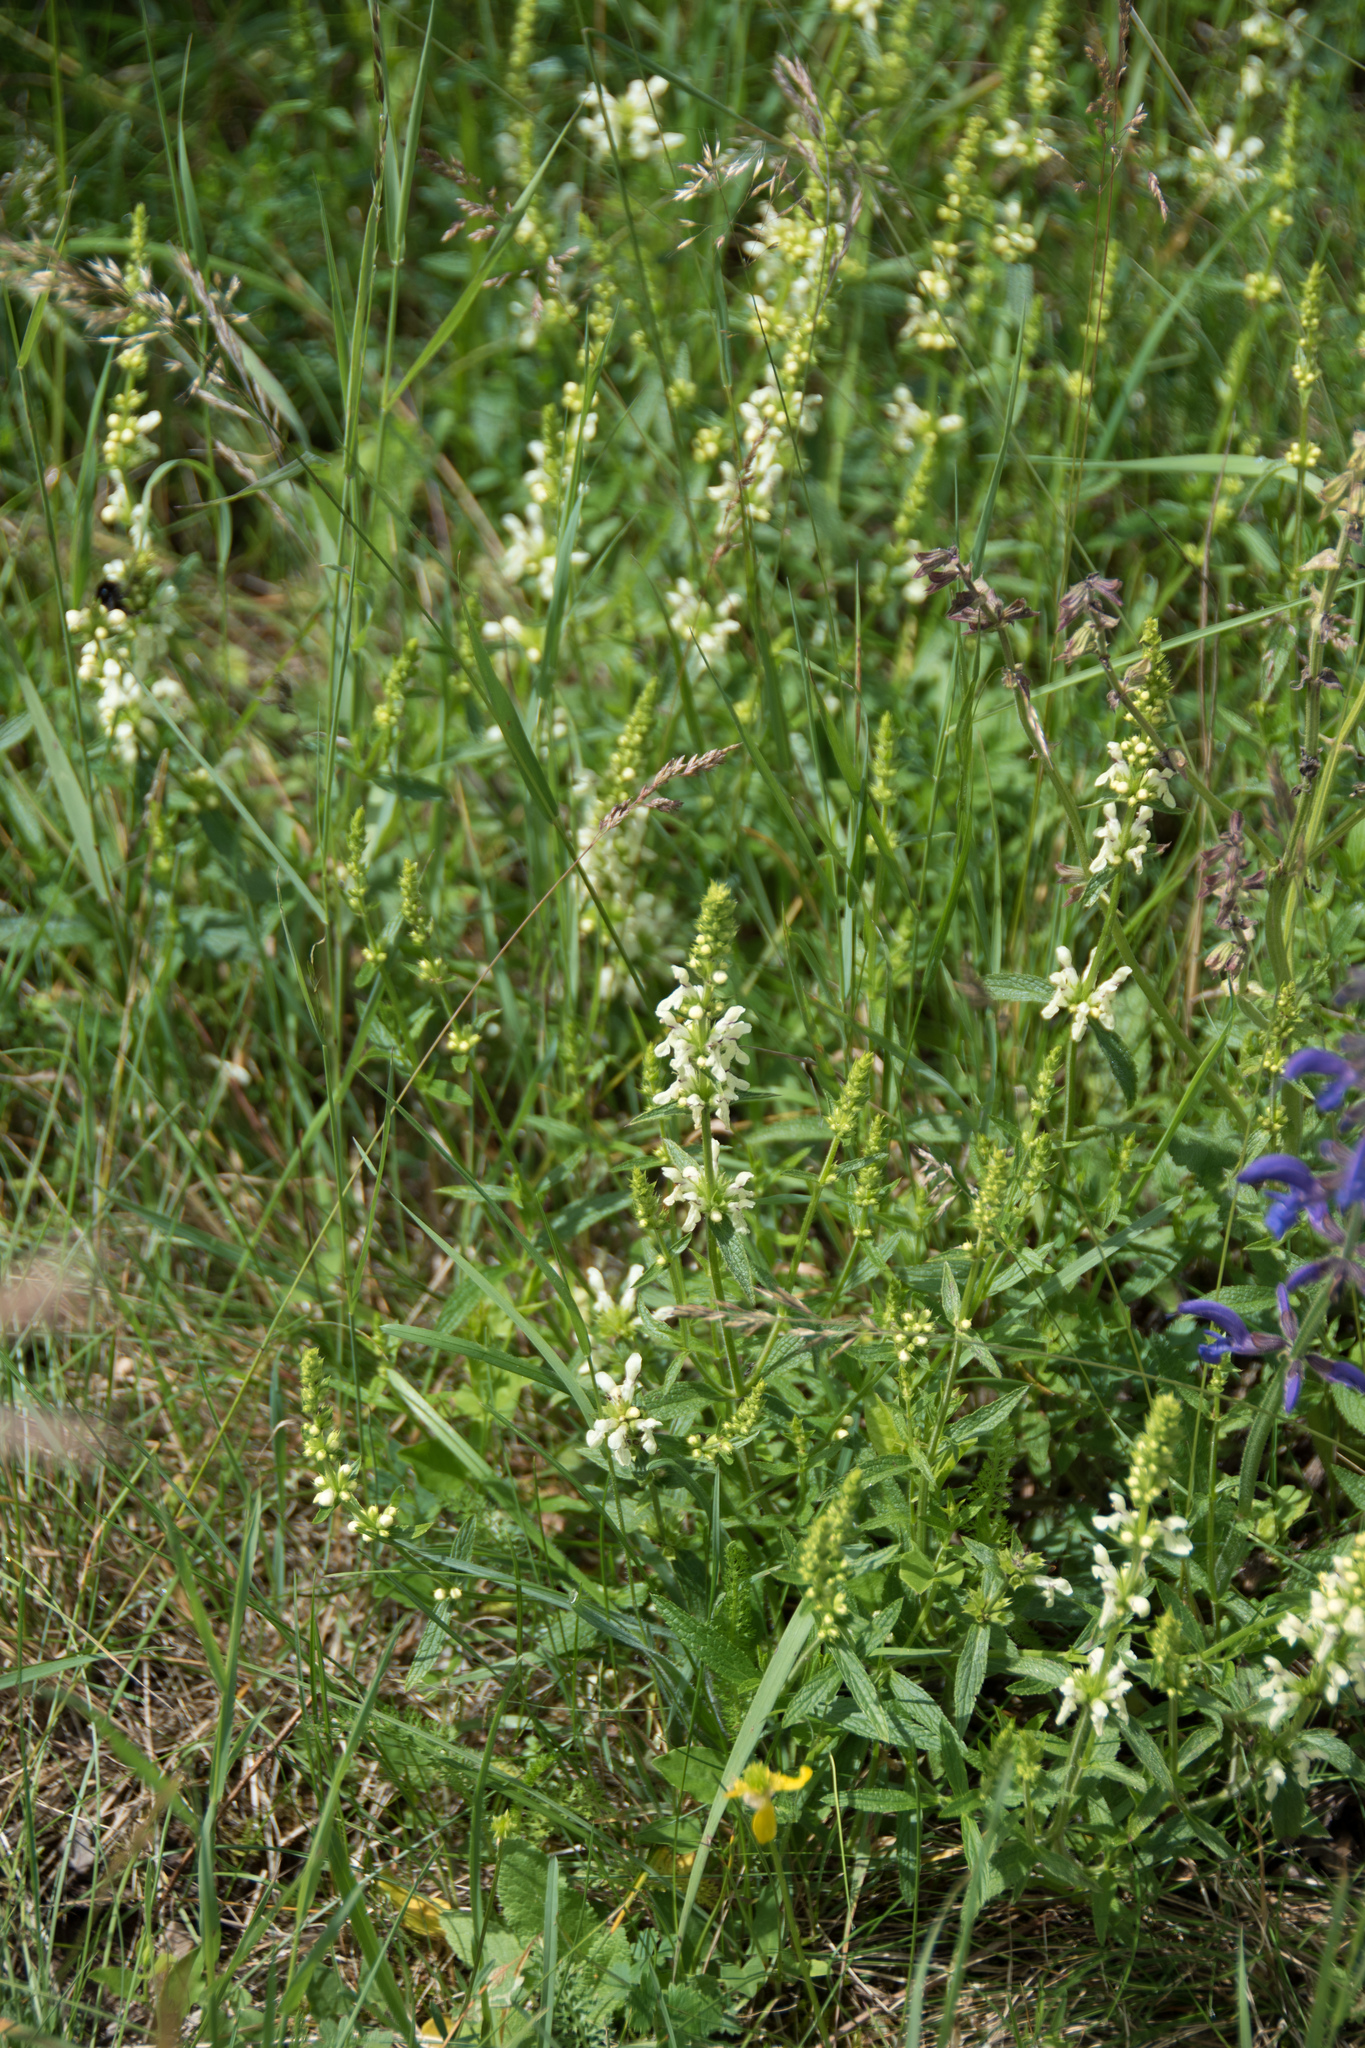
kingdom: Plantae
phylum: Tracheophyta
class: Magnoliopsida
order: Lamiales
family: Lamiaceae
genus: Stachys
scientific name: Stachys recta
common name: Perennial yellow-woundwort
